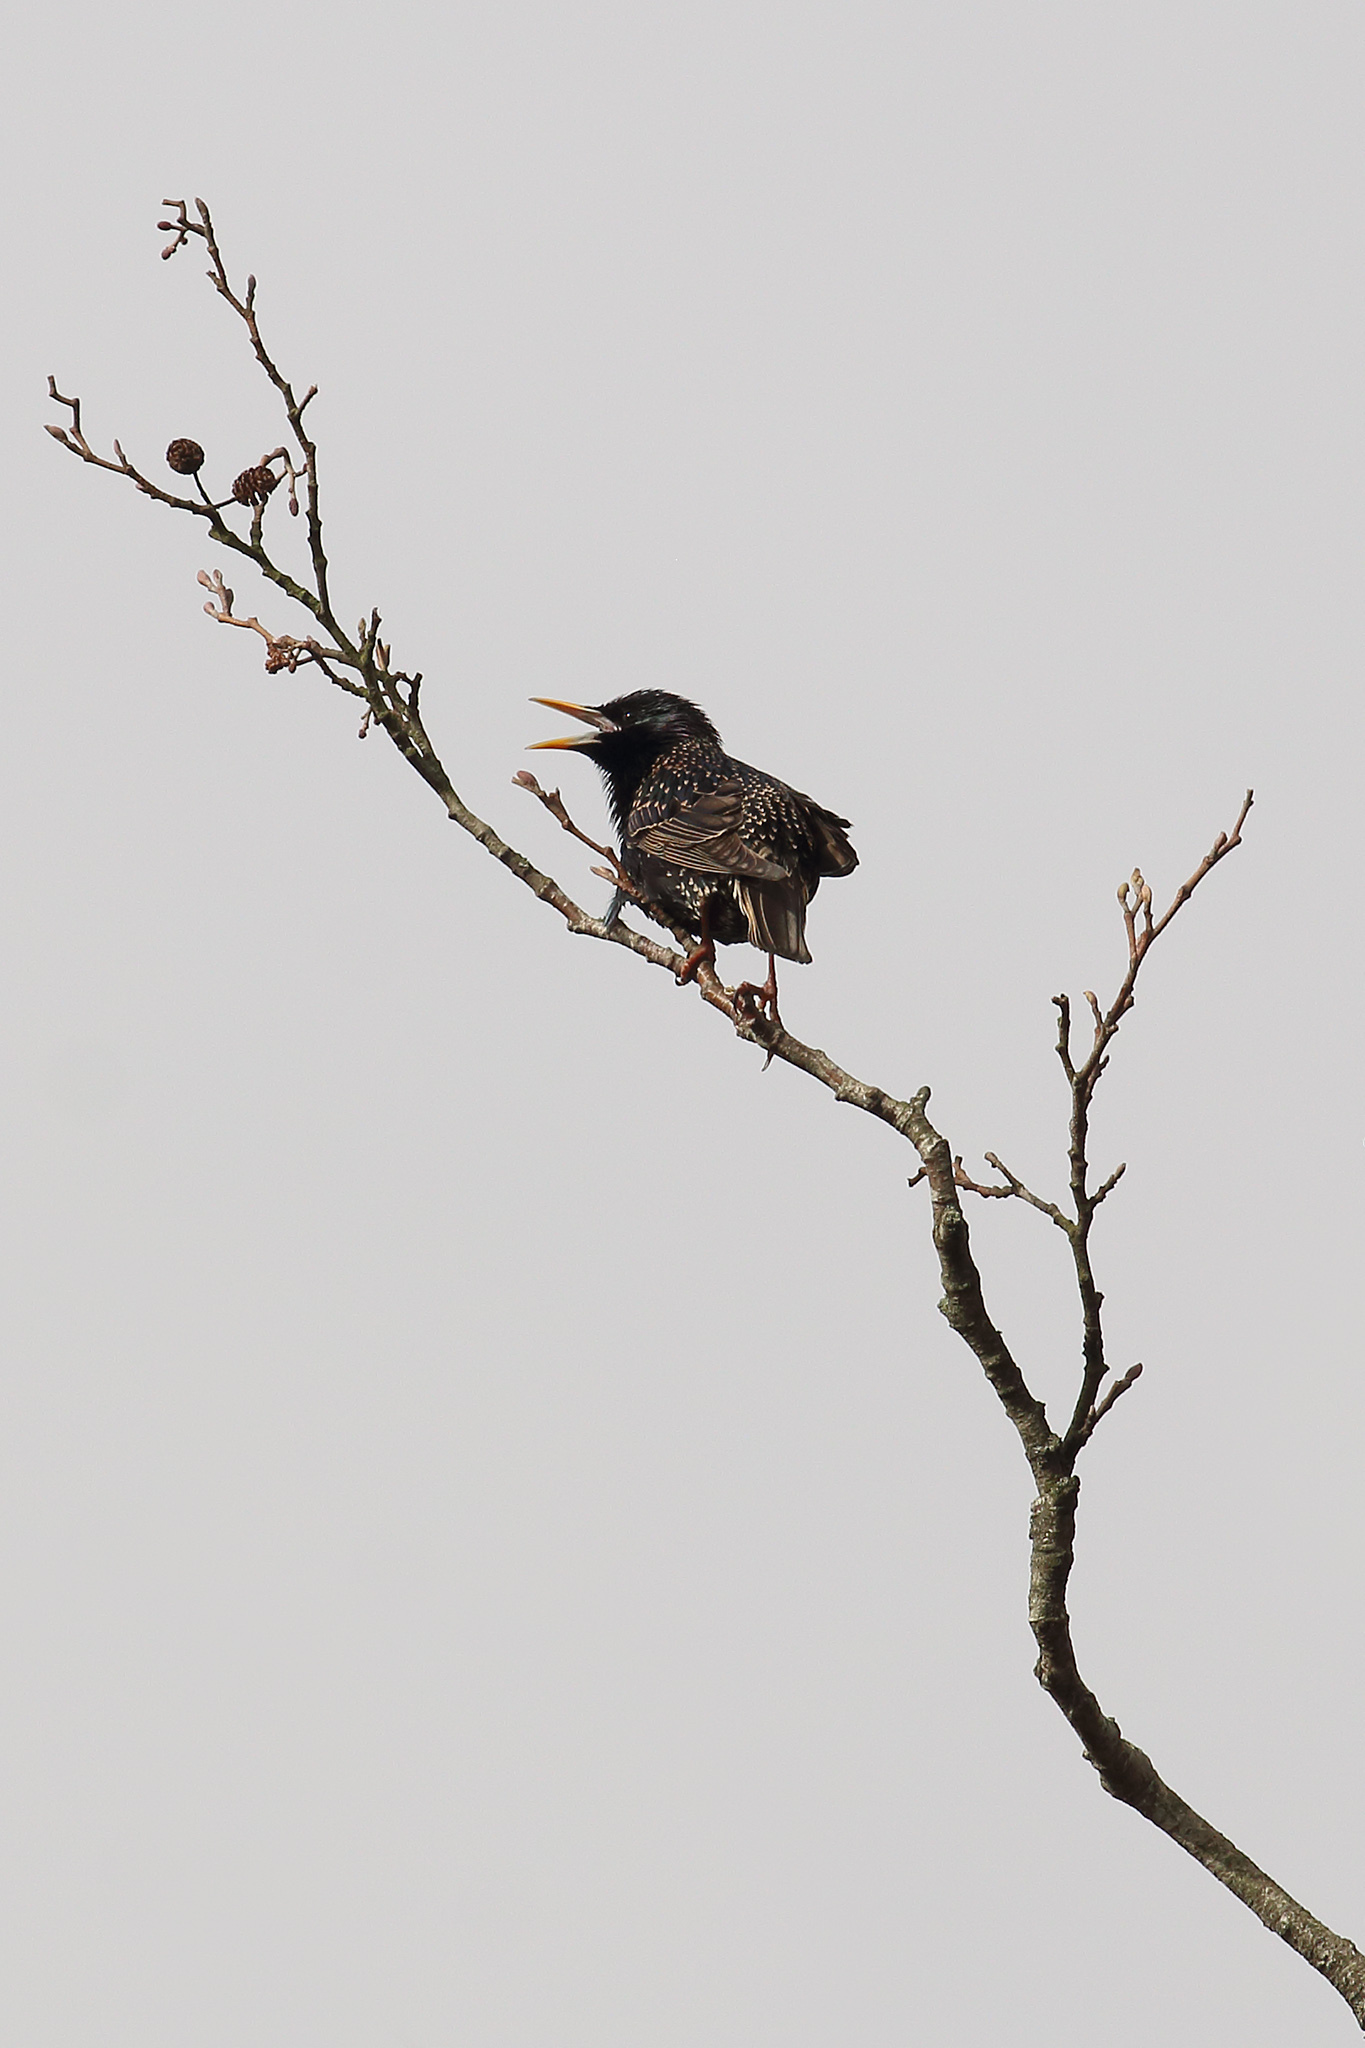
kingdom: Animalia
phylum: Chordata
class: Aves
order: Passeriformes
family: Sturnidae
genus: Sturnus
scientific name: Sturnus vulgaris
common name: Common starling
